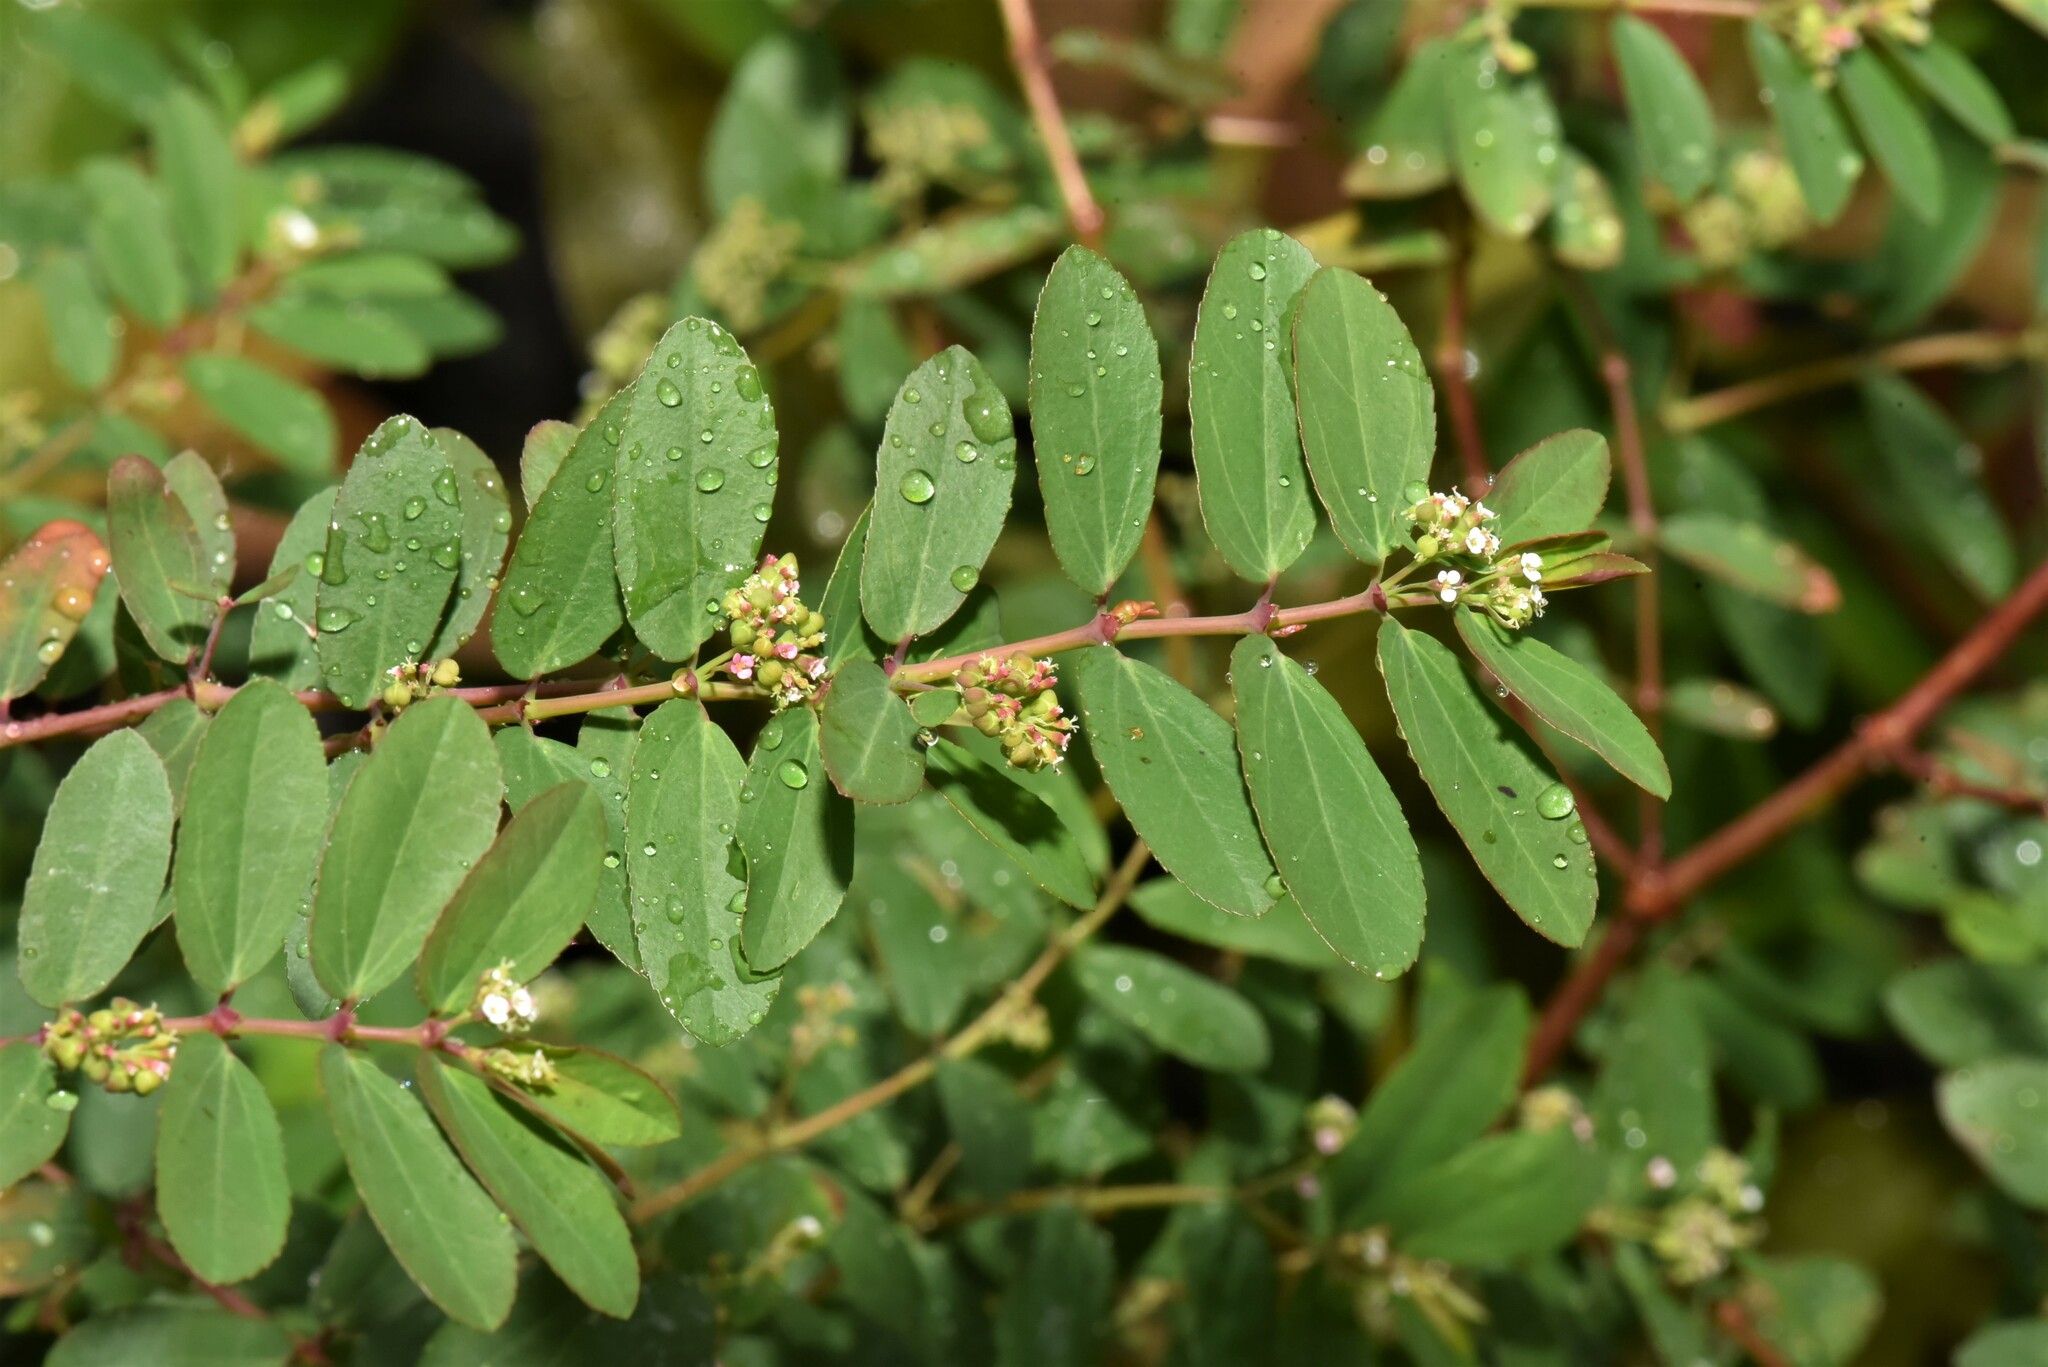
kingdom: Plantae
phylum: Tracheophyta
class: Magnoliopsida
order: Malpighiales
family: Euphorbiaceae
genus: Euphorbia
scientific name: Euphorbia hypericifolia
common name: Graceful sandmat
